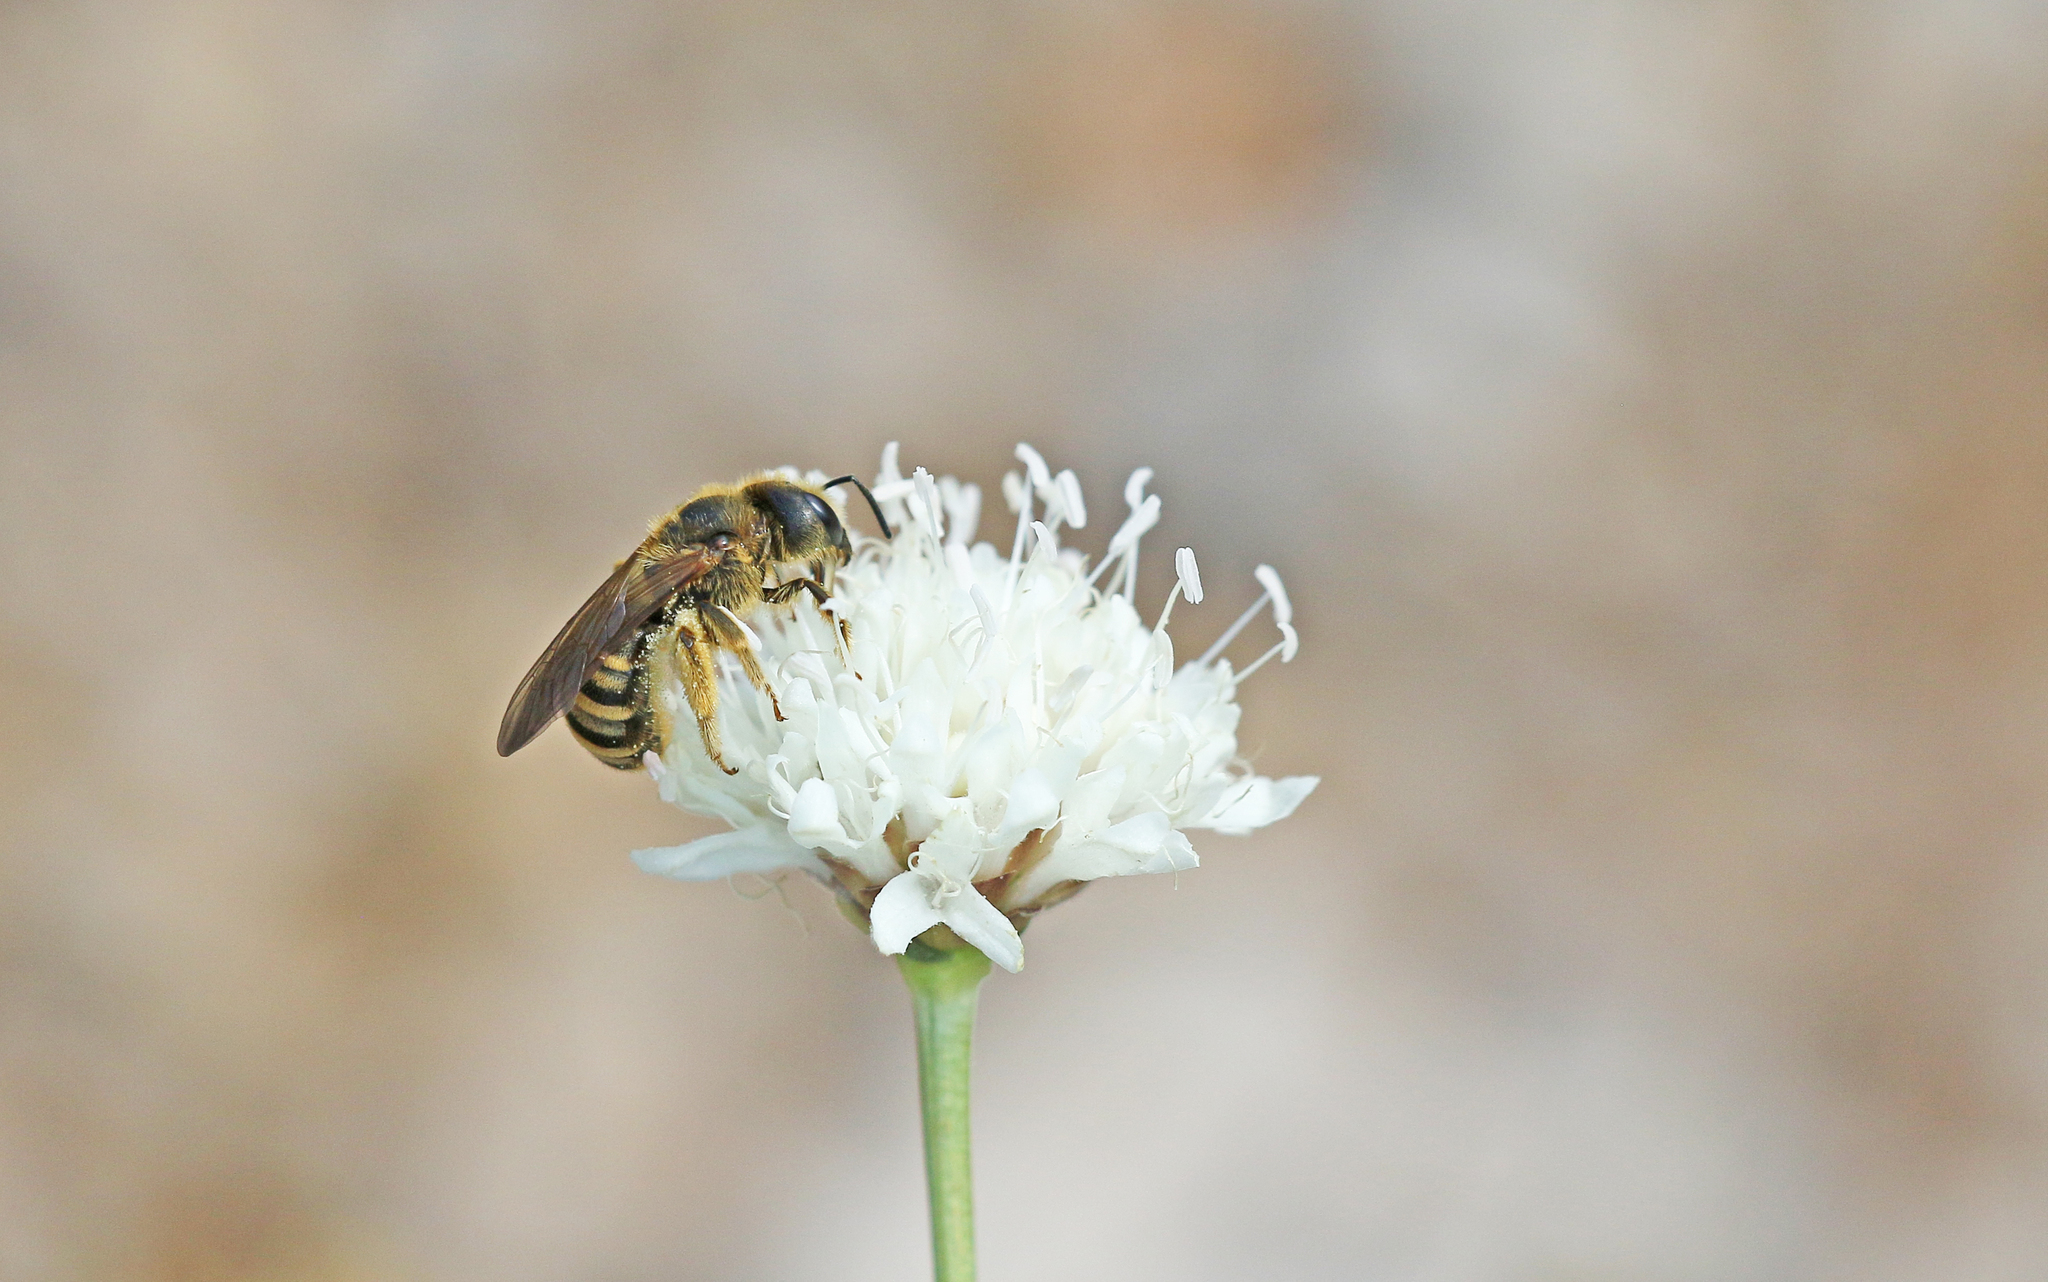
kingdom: Animalia
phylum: Arthropoda
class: Insecta
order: Hymenoptera
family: Halictidae
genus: Halictus
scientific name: Halictus scabiosae
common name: Great banded furrow bee
